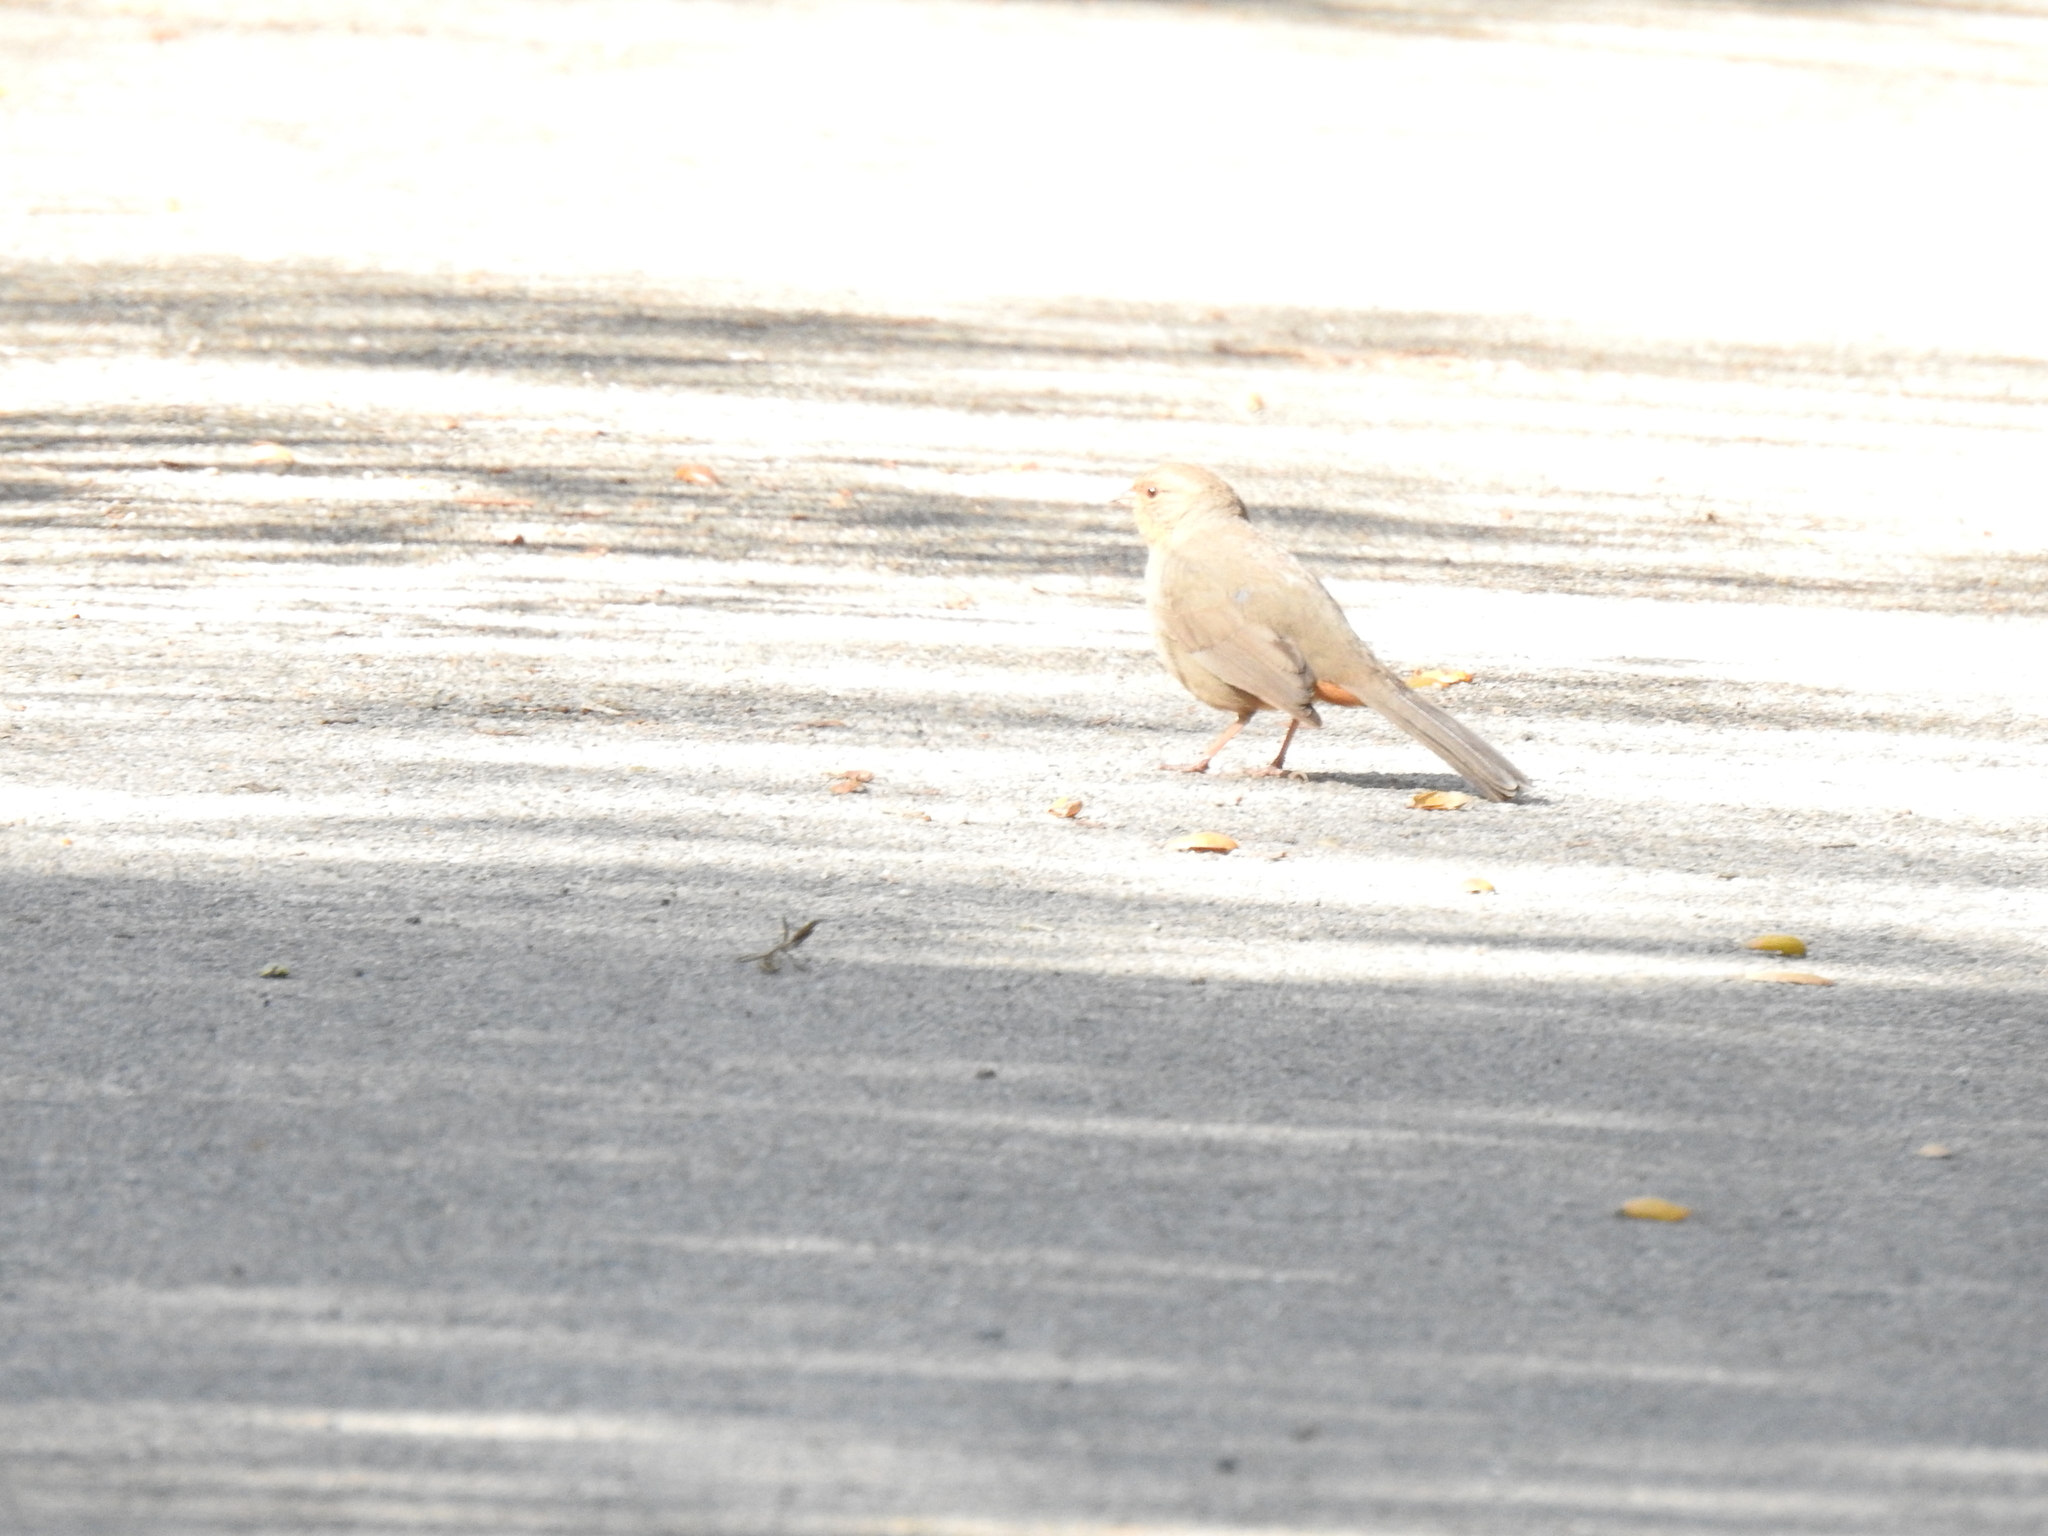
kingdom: Animalia
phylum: Chordata
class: Aves
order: Passeriformes
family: Passerellidae
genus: Melozone
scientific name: Melozone crissalis
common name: California towhee
